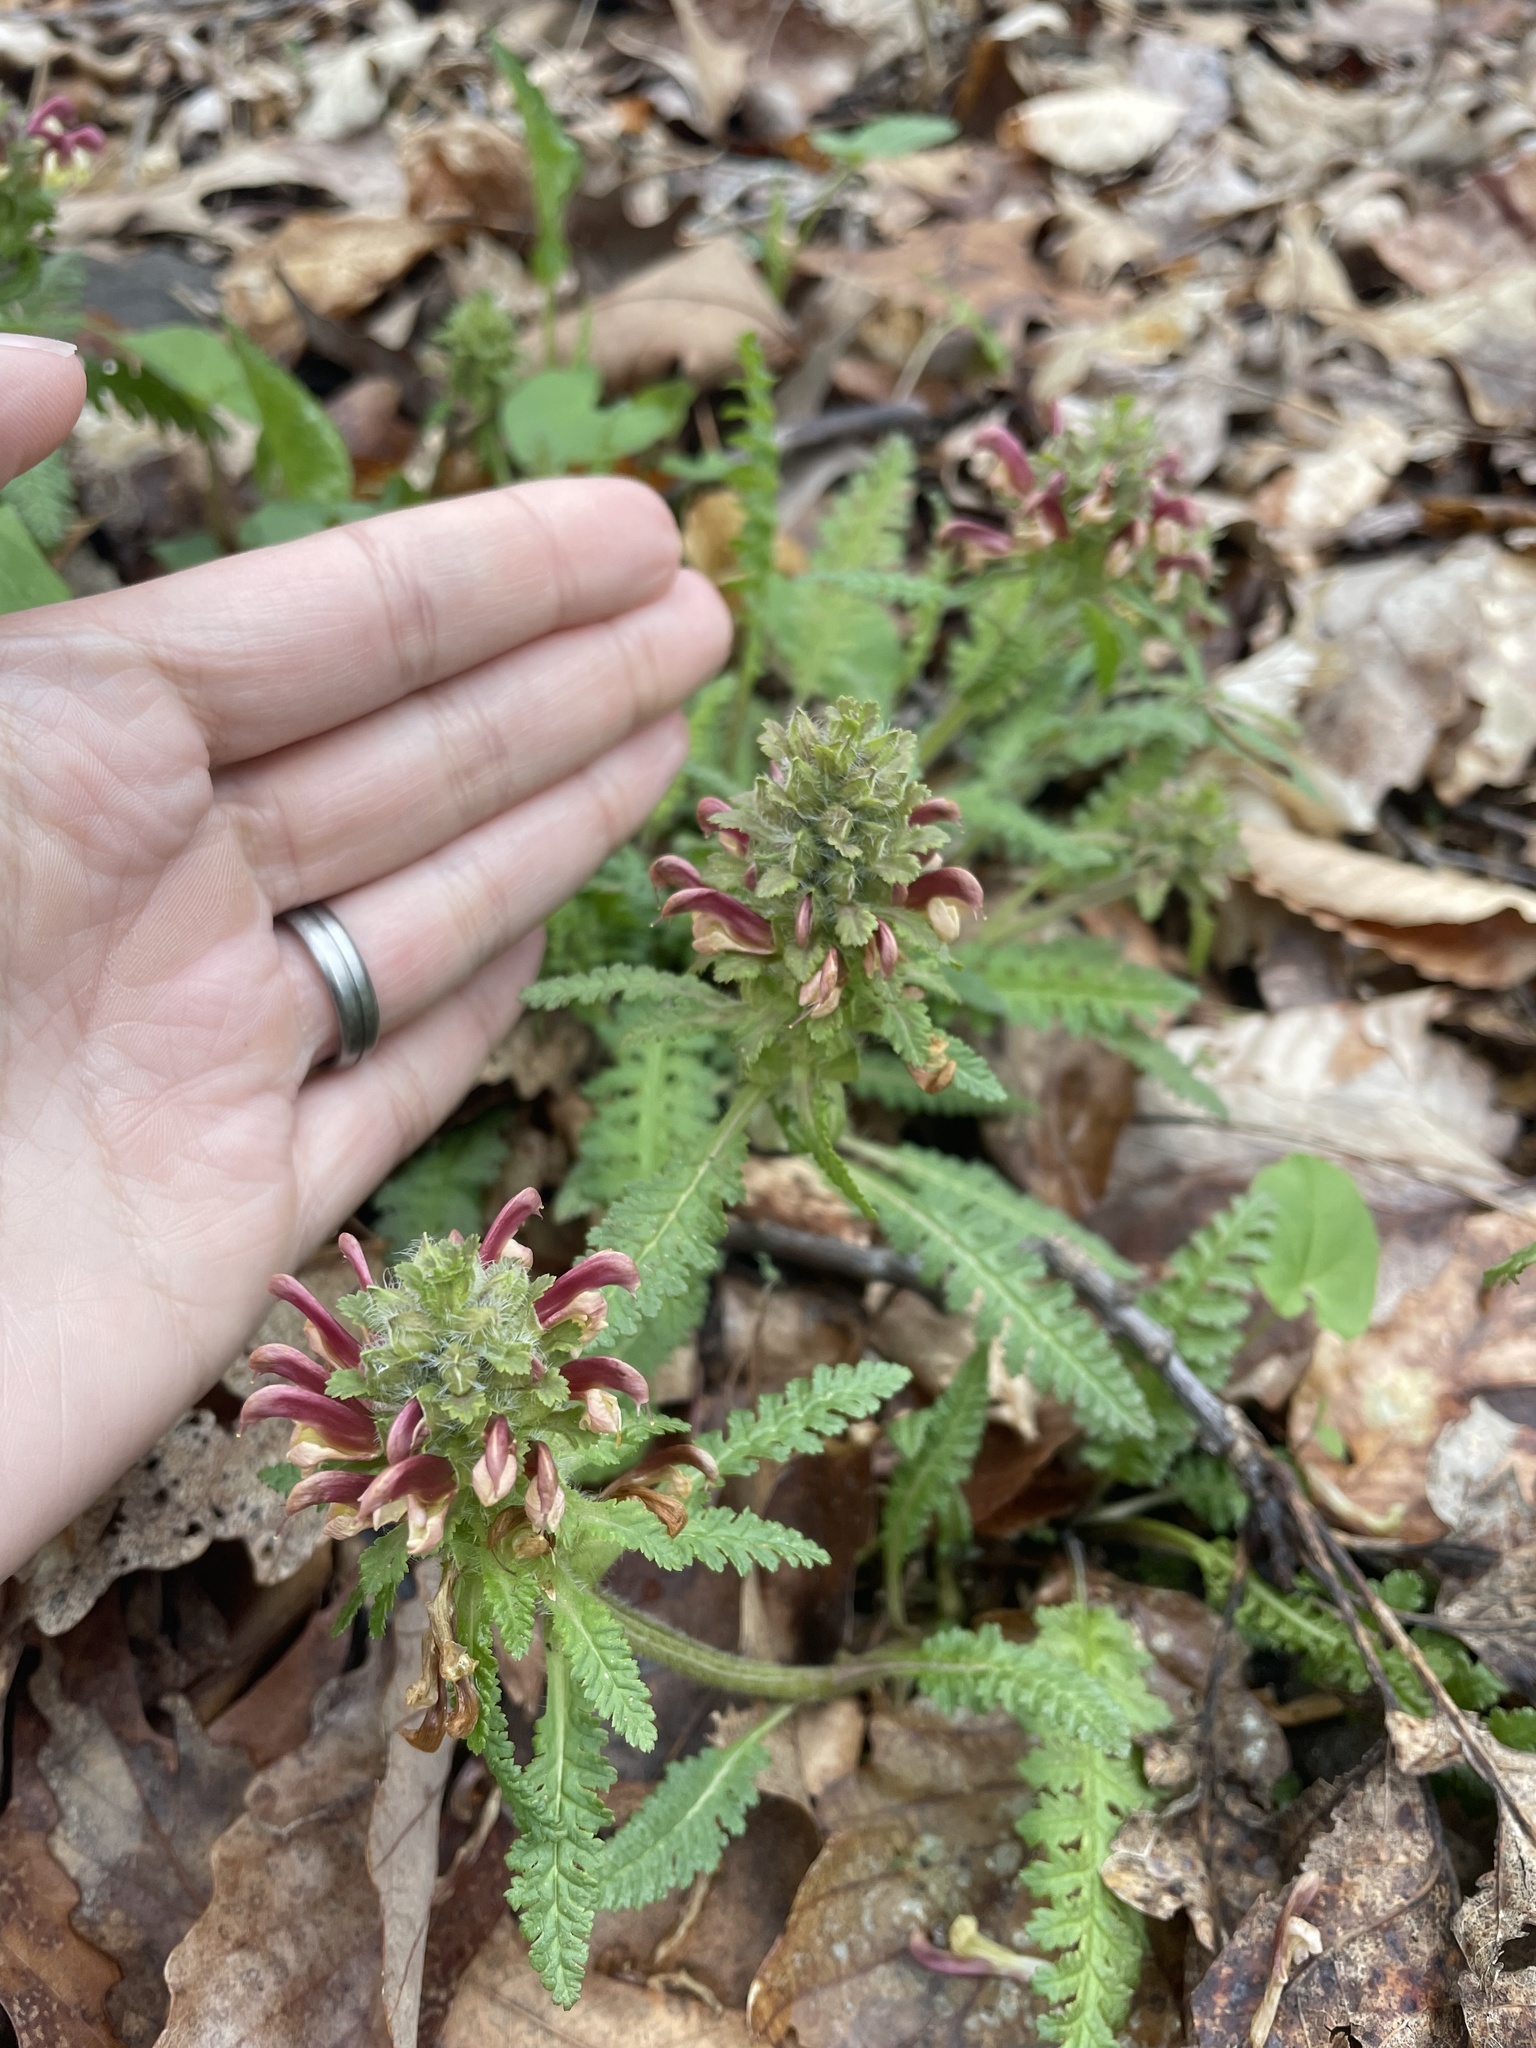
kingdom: Plantae
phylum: Tracheophyta
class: Magnoliopsida
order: Lamiales
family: Orobanchaceae
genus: Pedicularis
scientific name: Pedicularis canadensis
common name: Early lousewort
